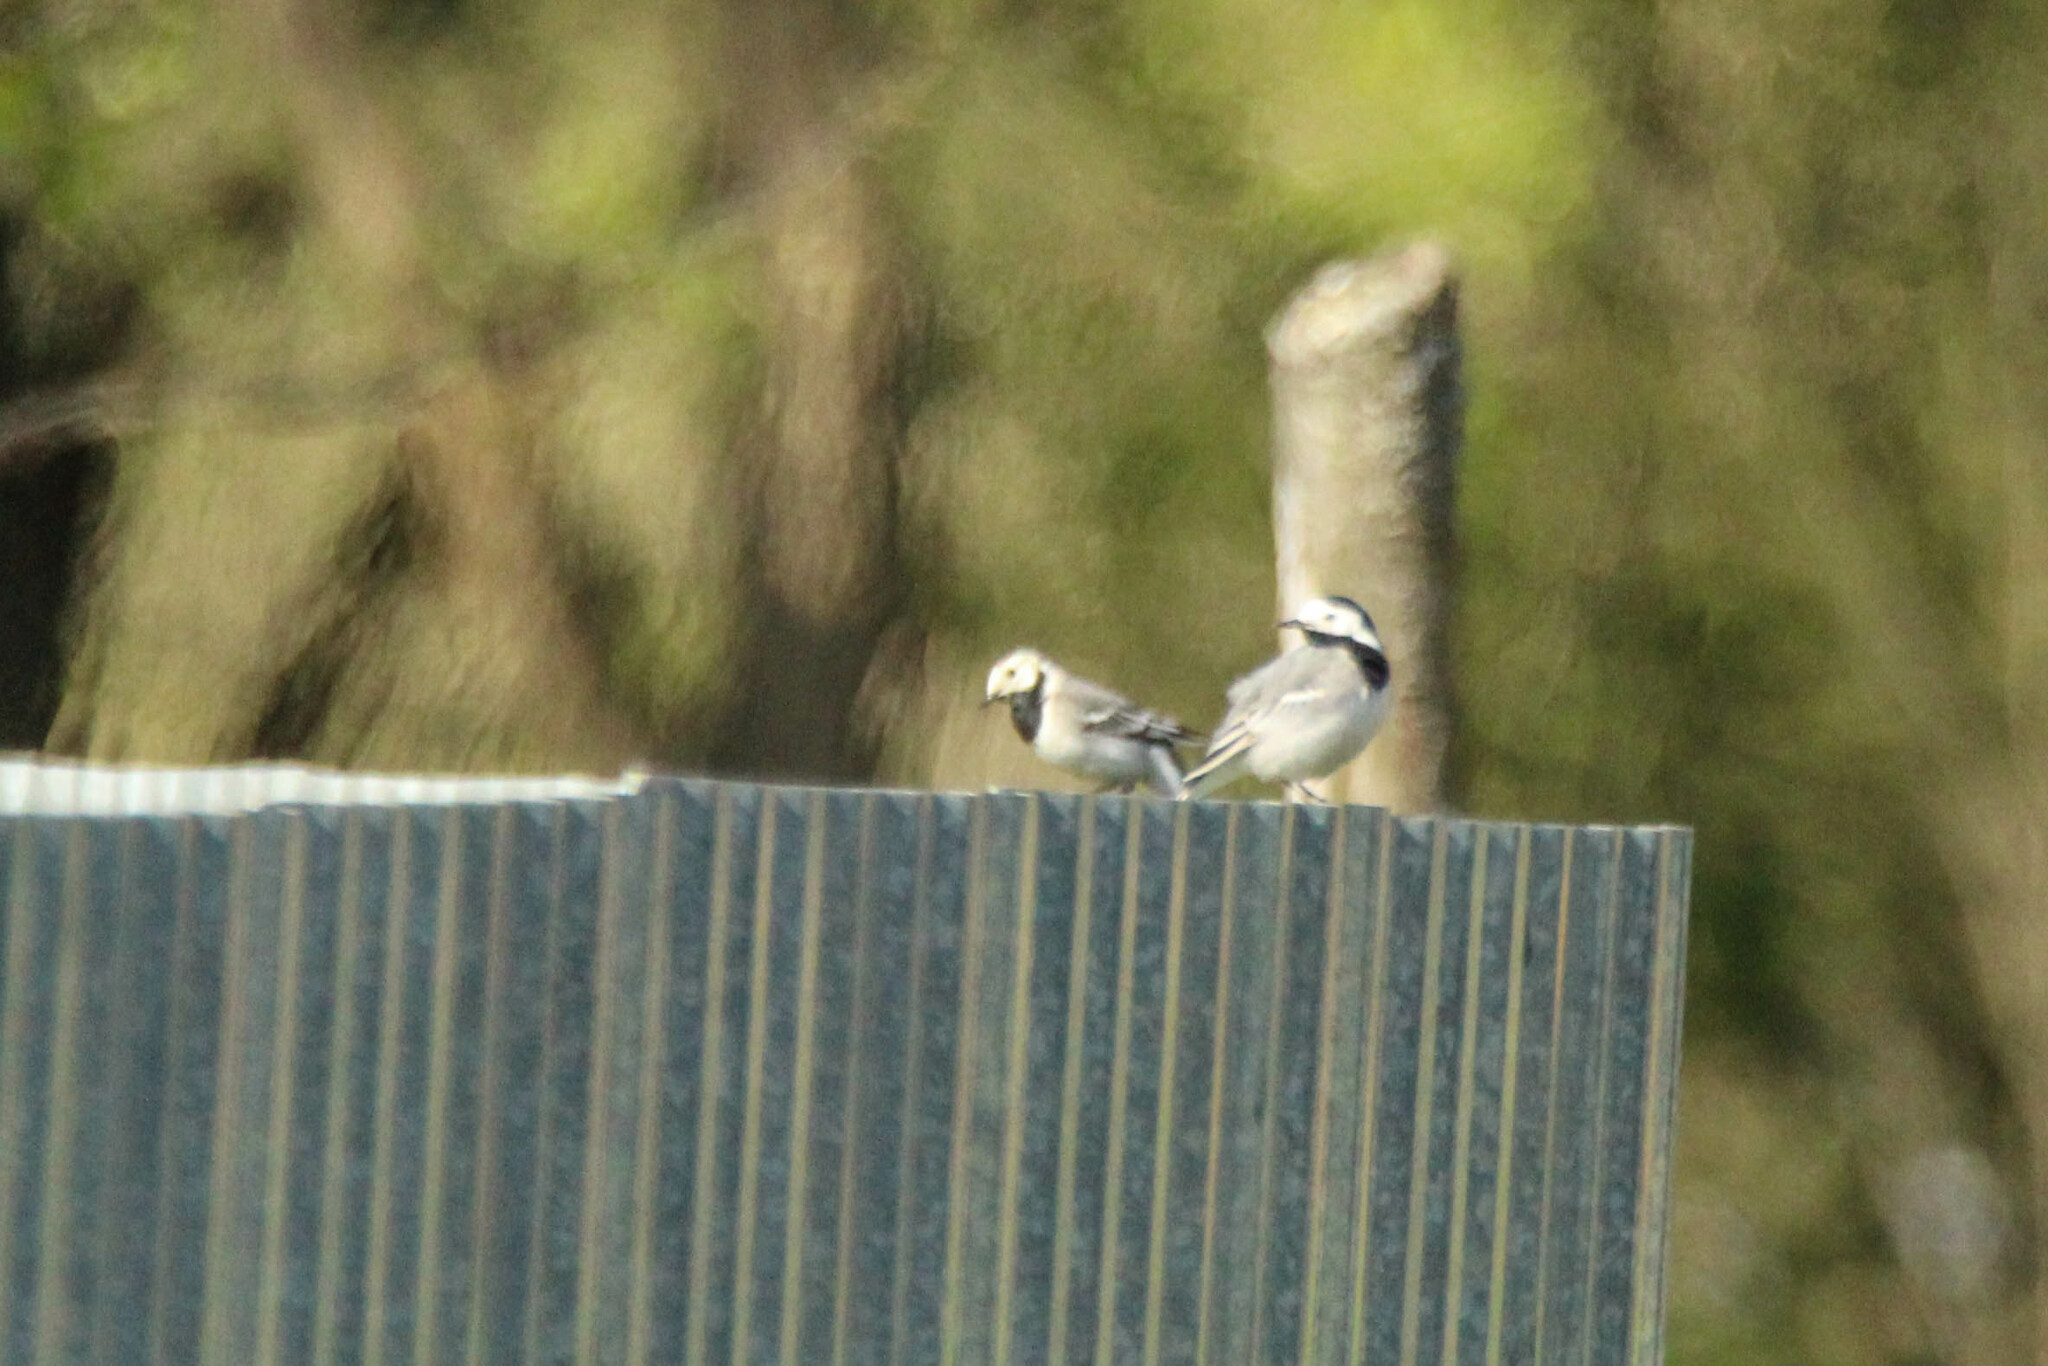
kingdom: Animalia
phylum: Chordata
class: Aves
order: Passeriformes
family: Motacillidae
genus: Motacilla
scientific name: Motacilla alba
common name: White wagtail
